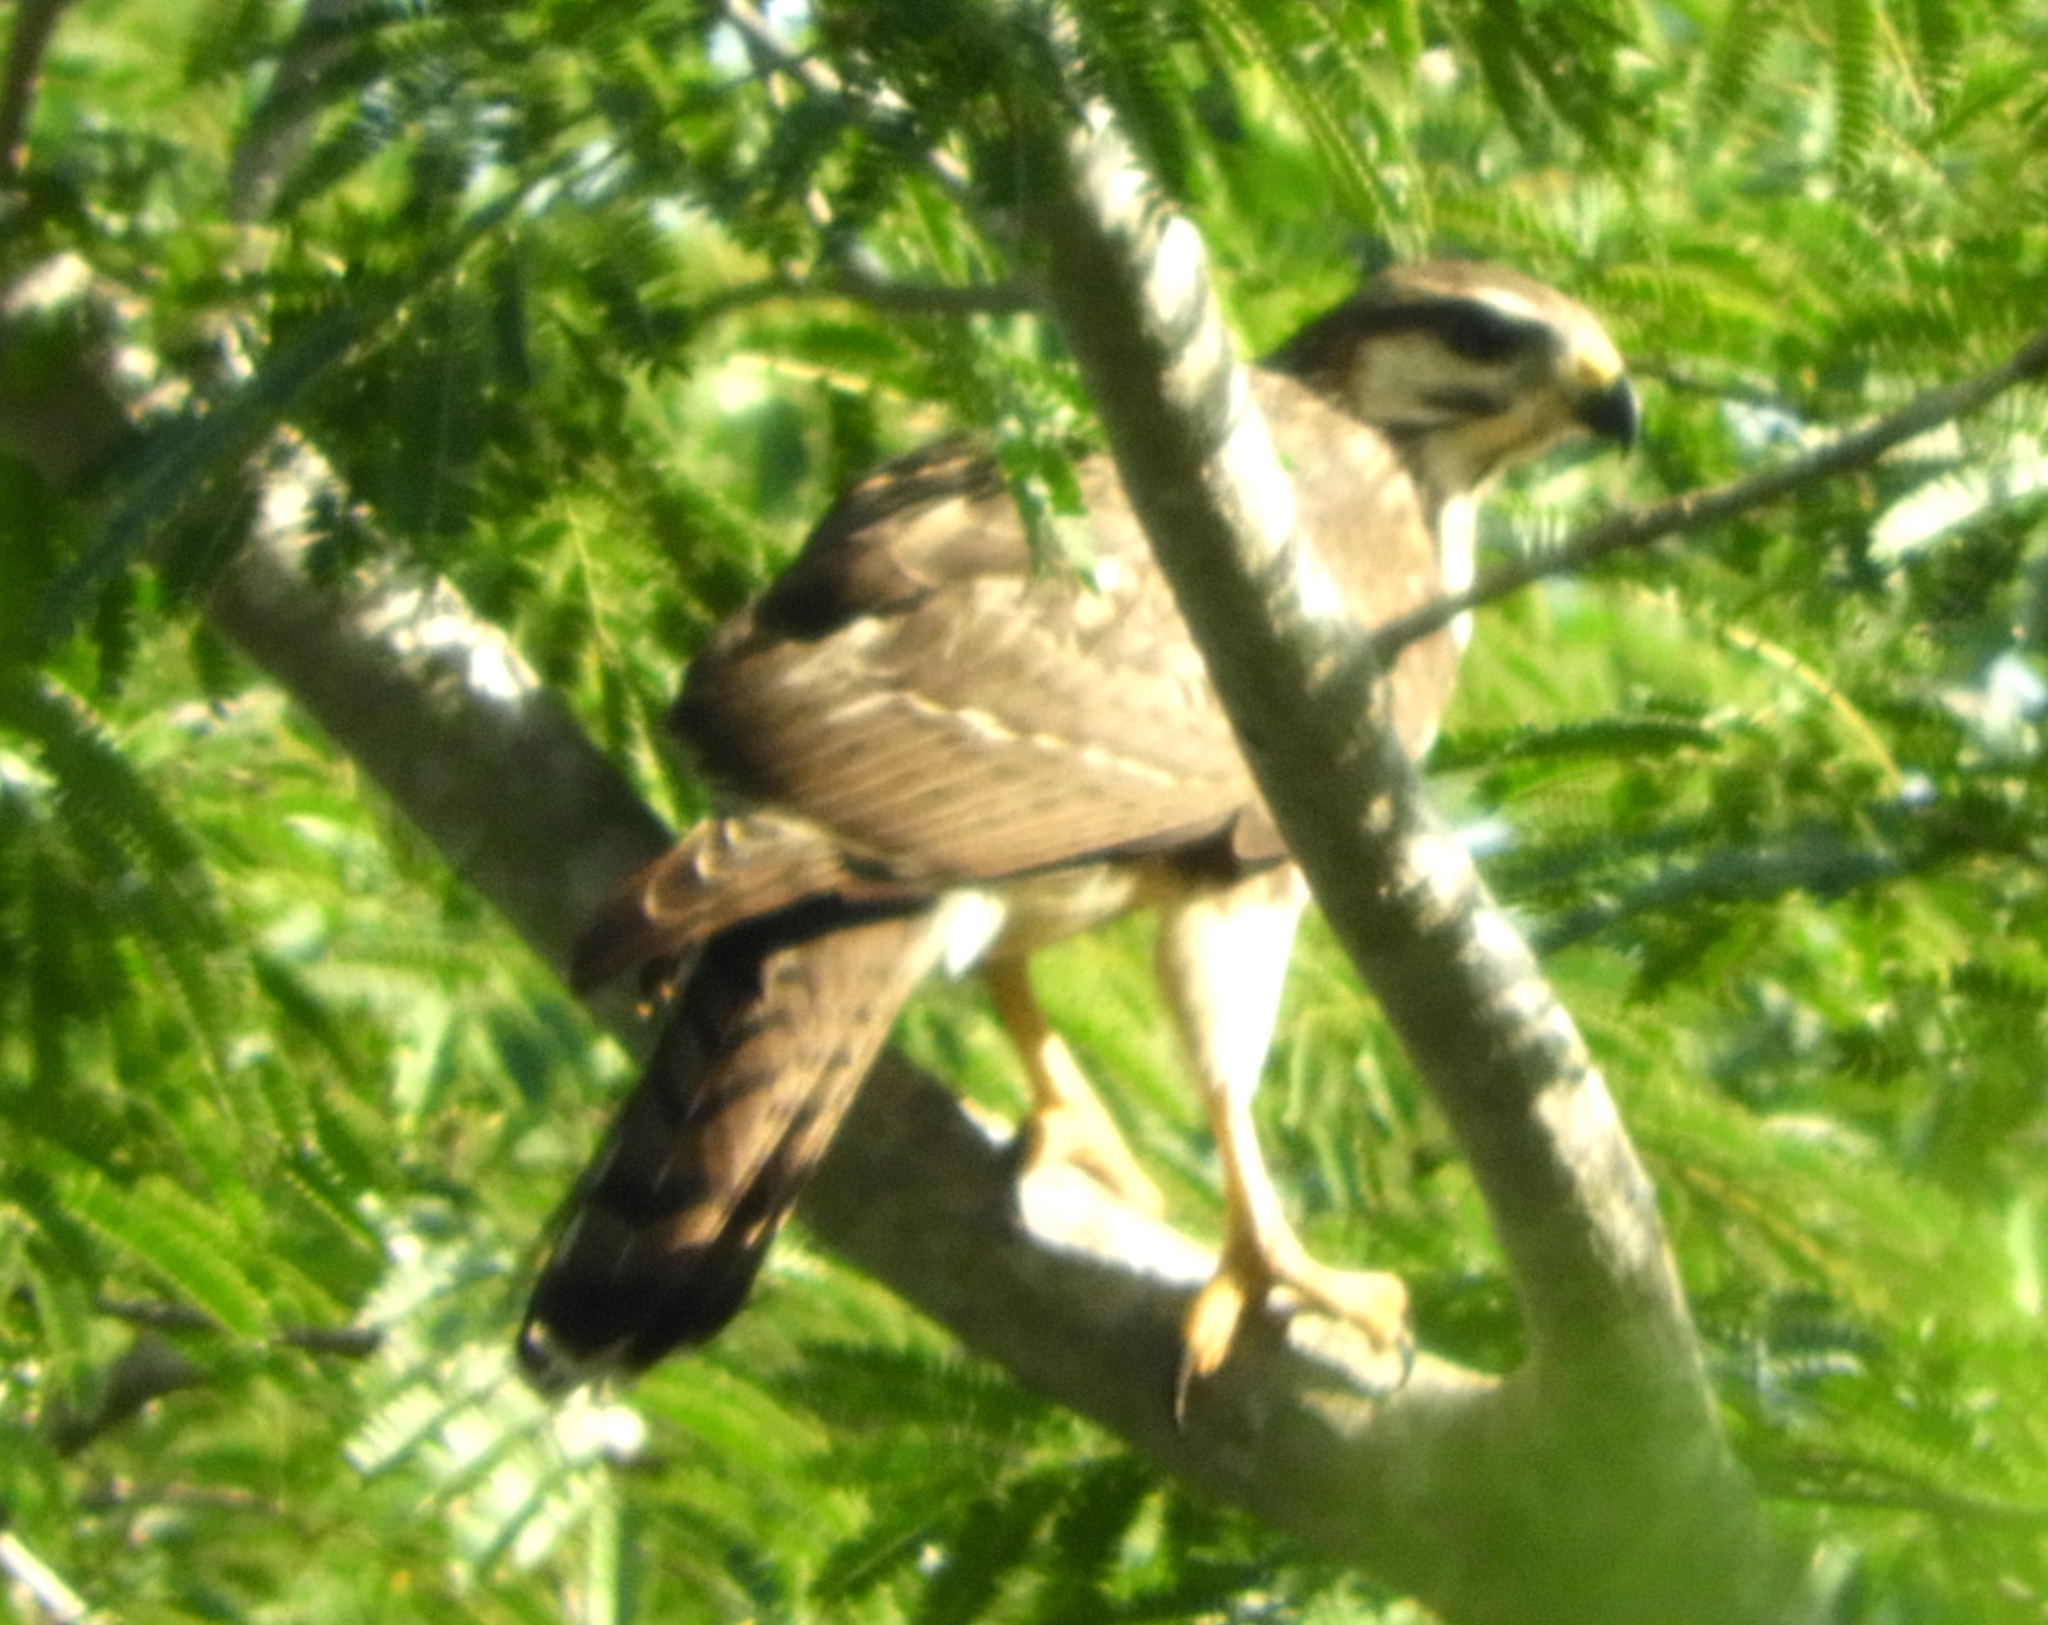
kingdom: Animalia
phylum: Chordata
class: Aves
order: Accipitriformes
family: Accipitridae
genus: Buteo
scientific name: Buteo nitidus
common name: Grey-lined hawk
